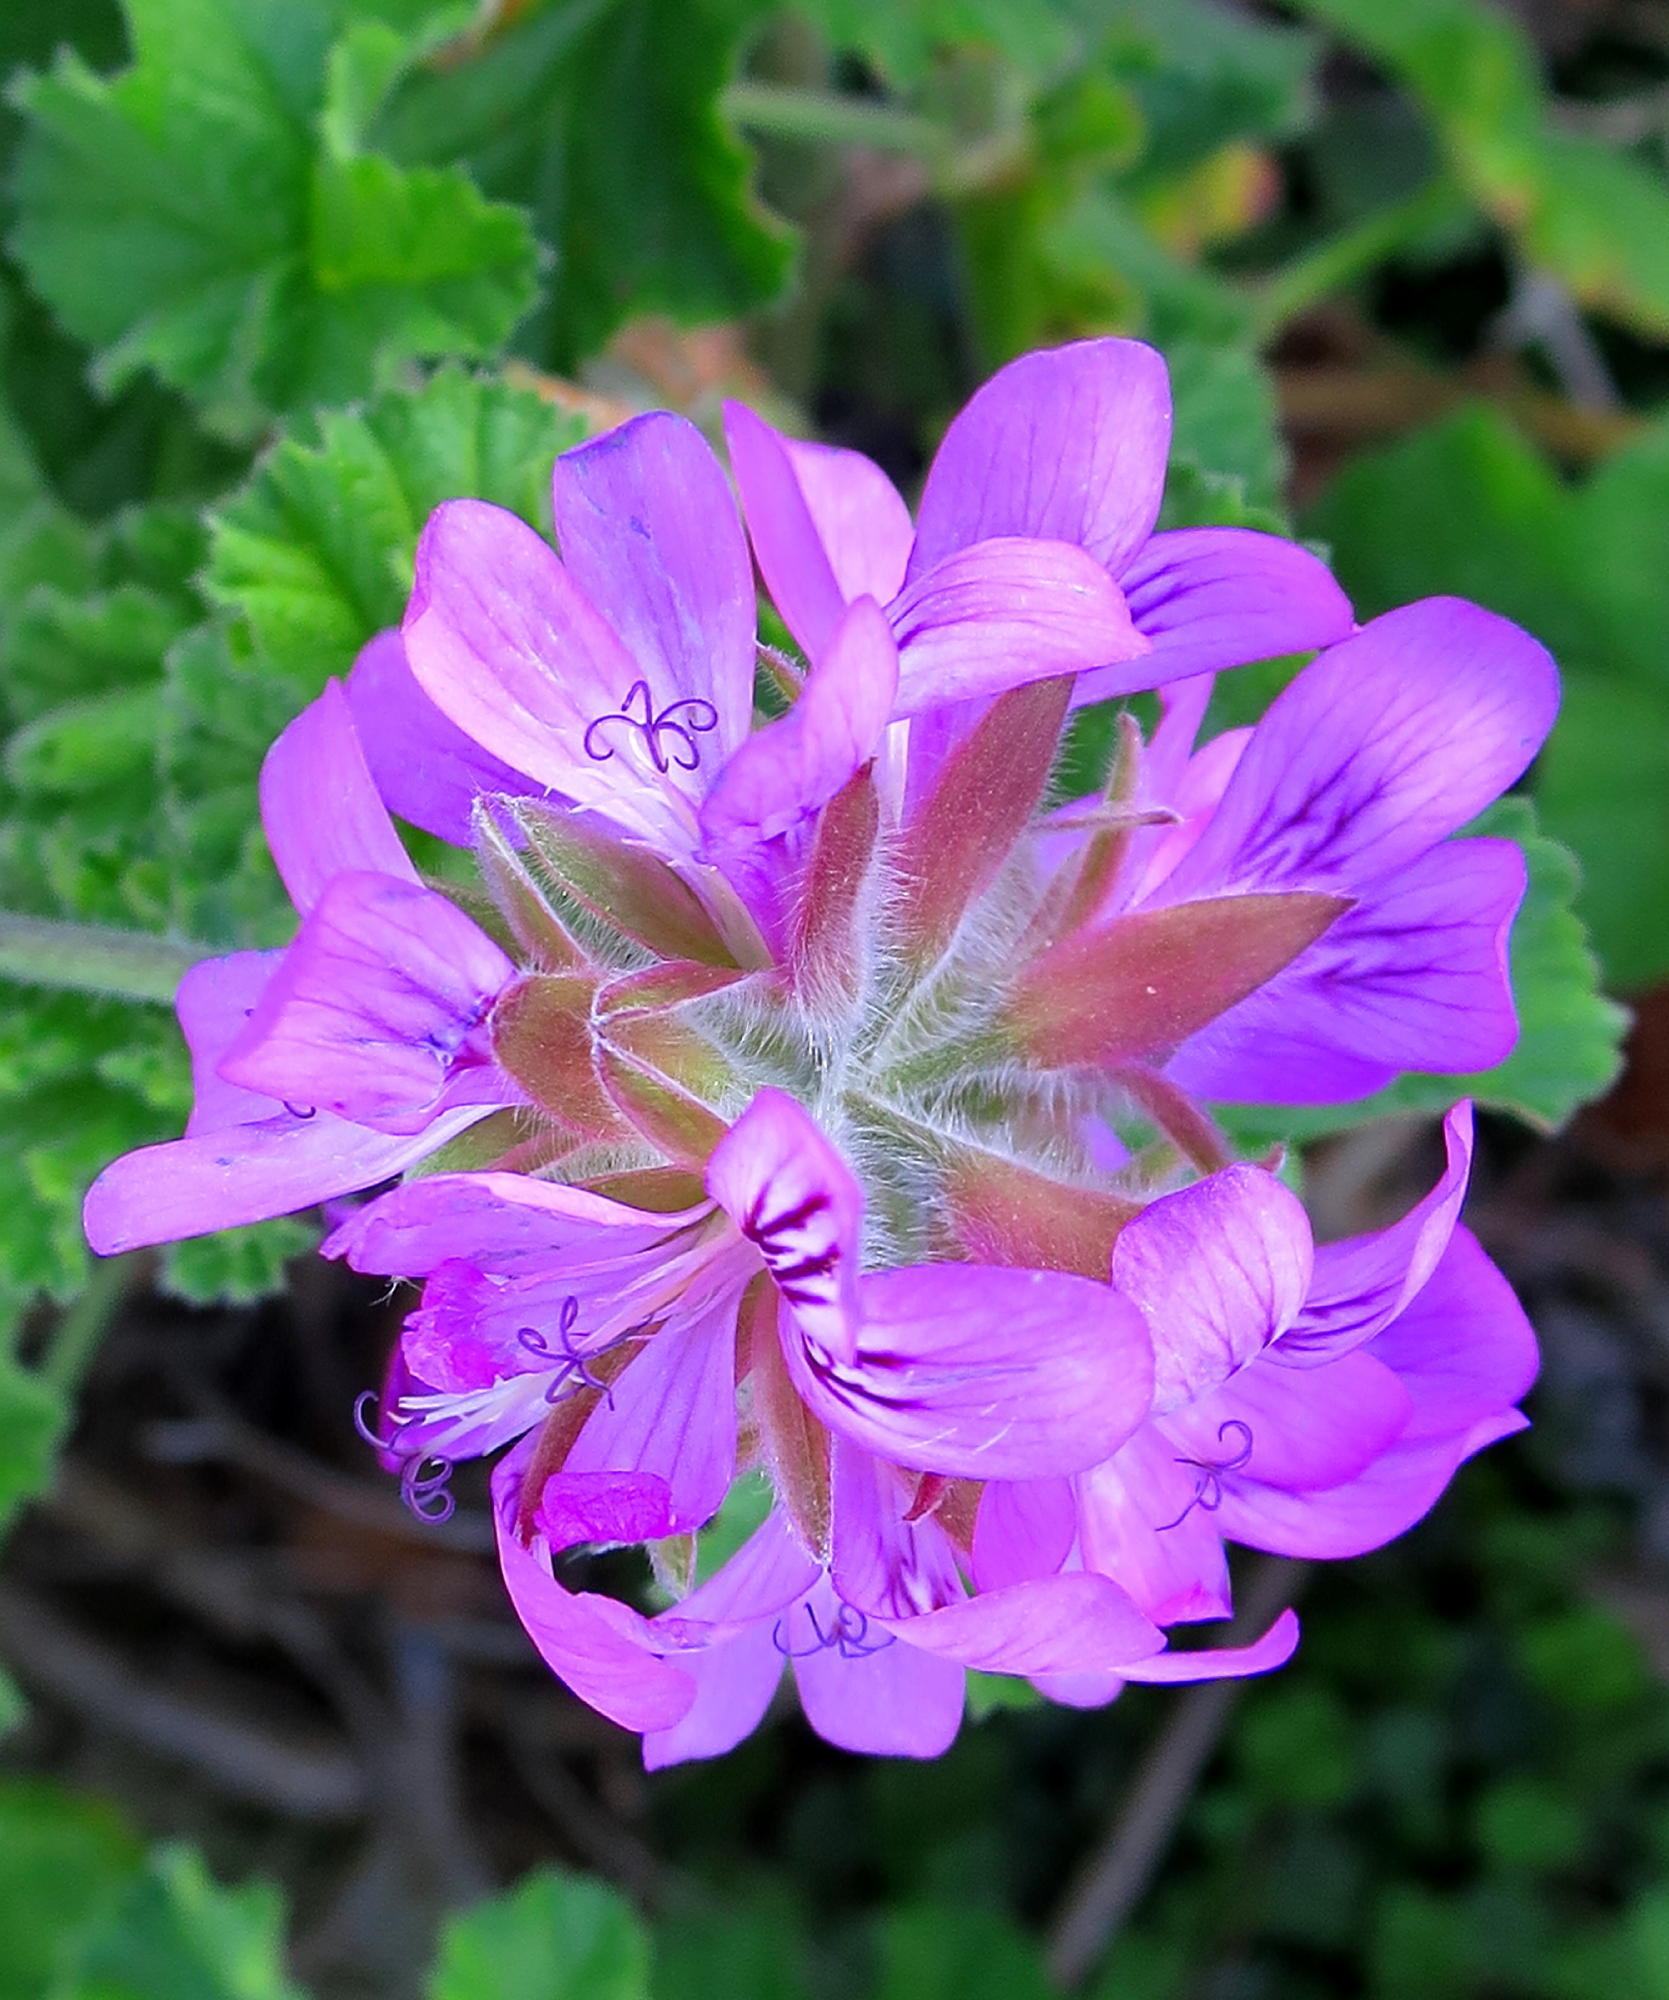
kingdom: Plantae
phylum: Tracheophyta
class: Magnoliopsida
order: Geraniales
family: Geraniaceae
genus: Pelargonium
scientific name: Pelargonium capitatum
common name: Rose scented geranium
